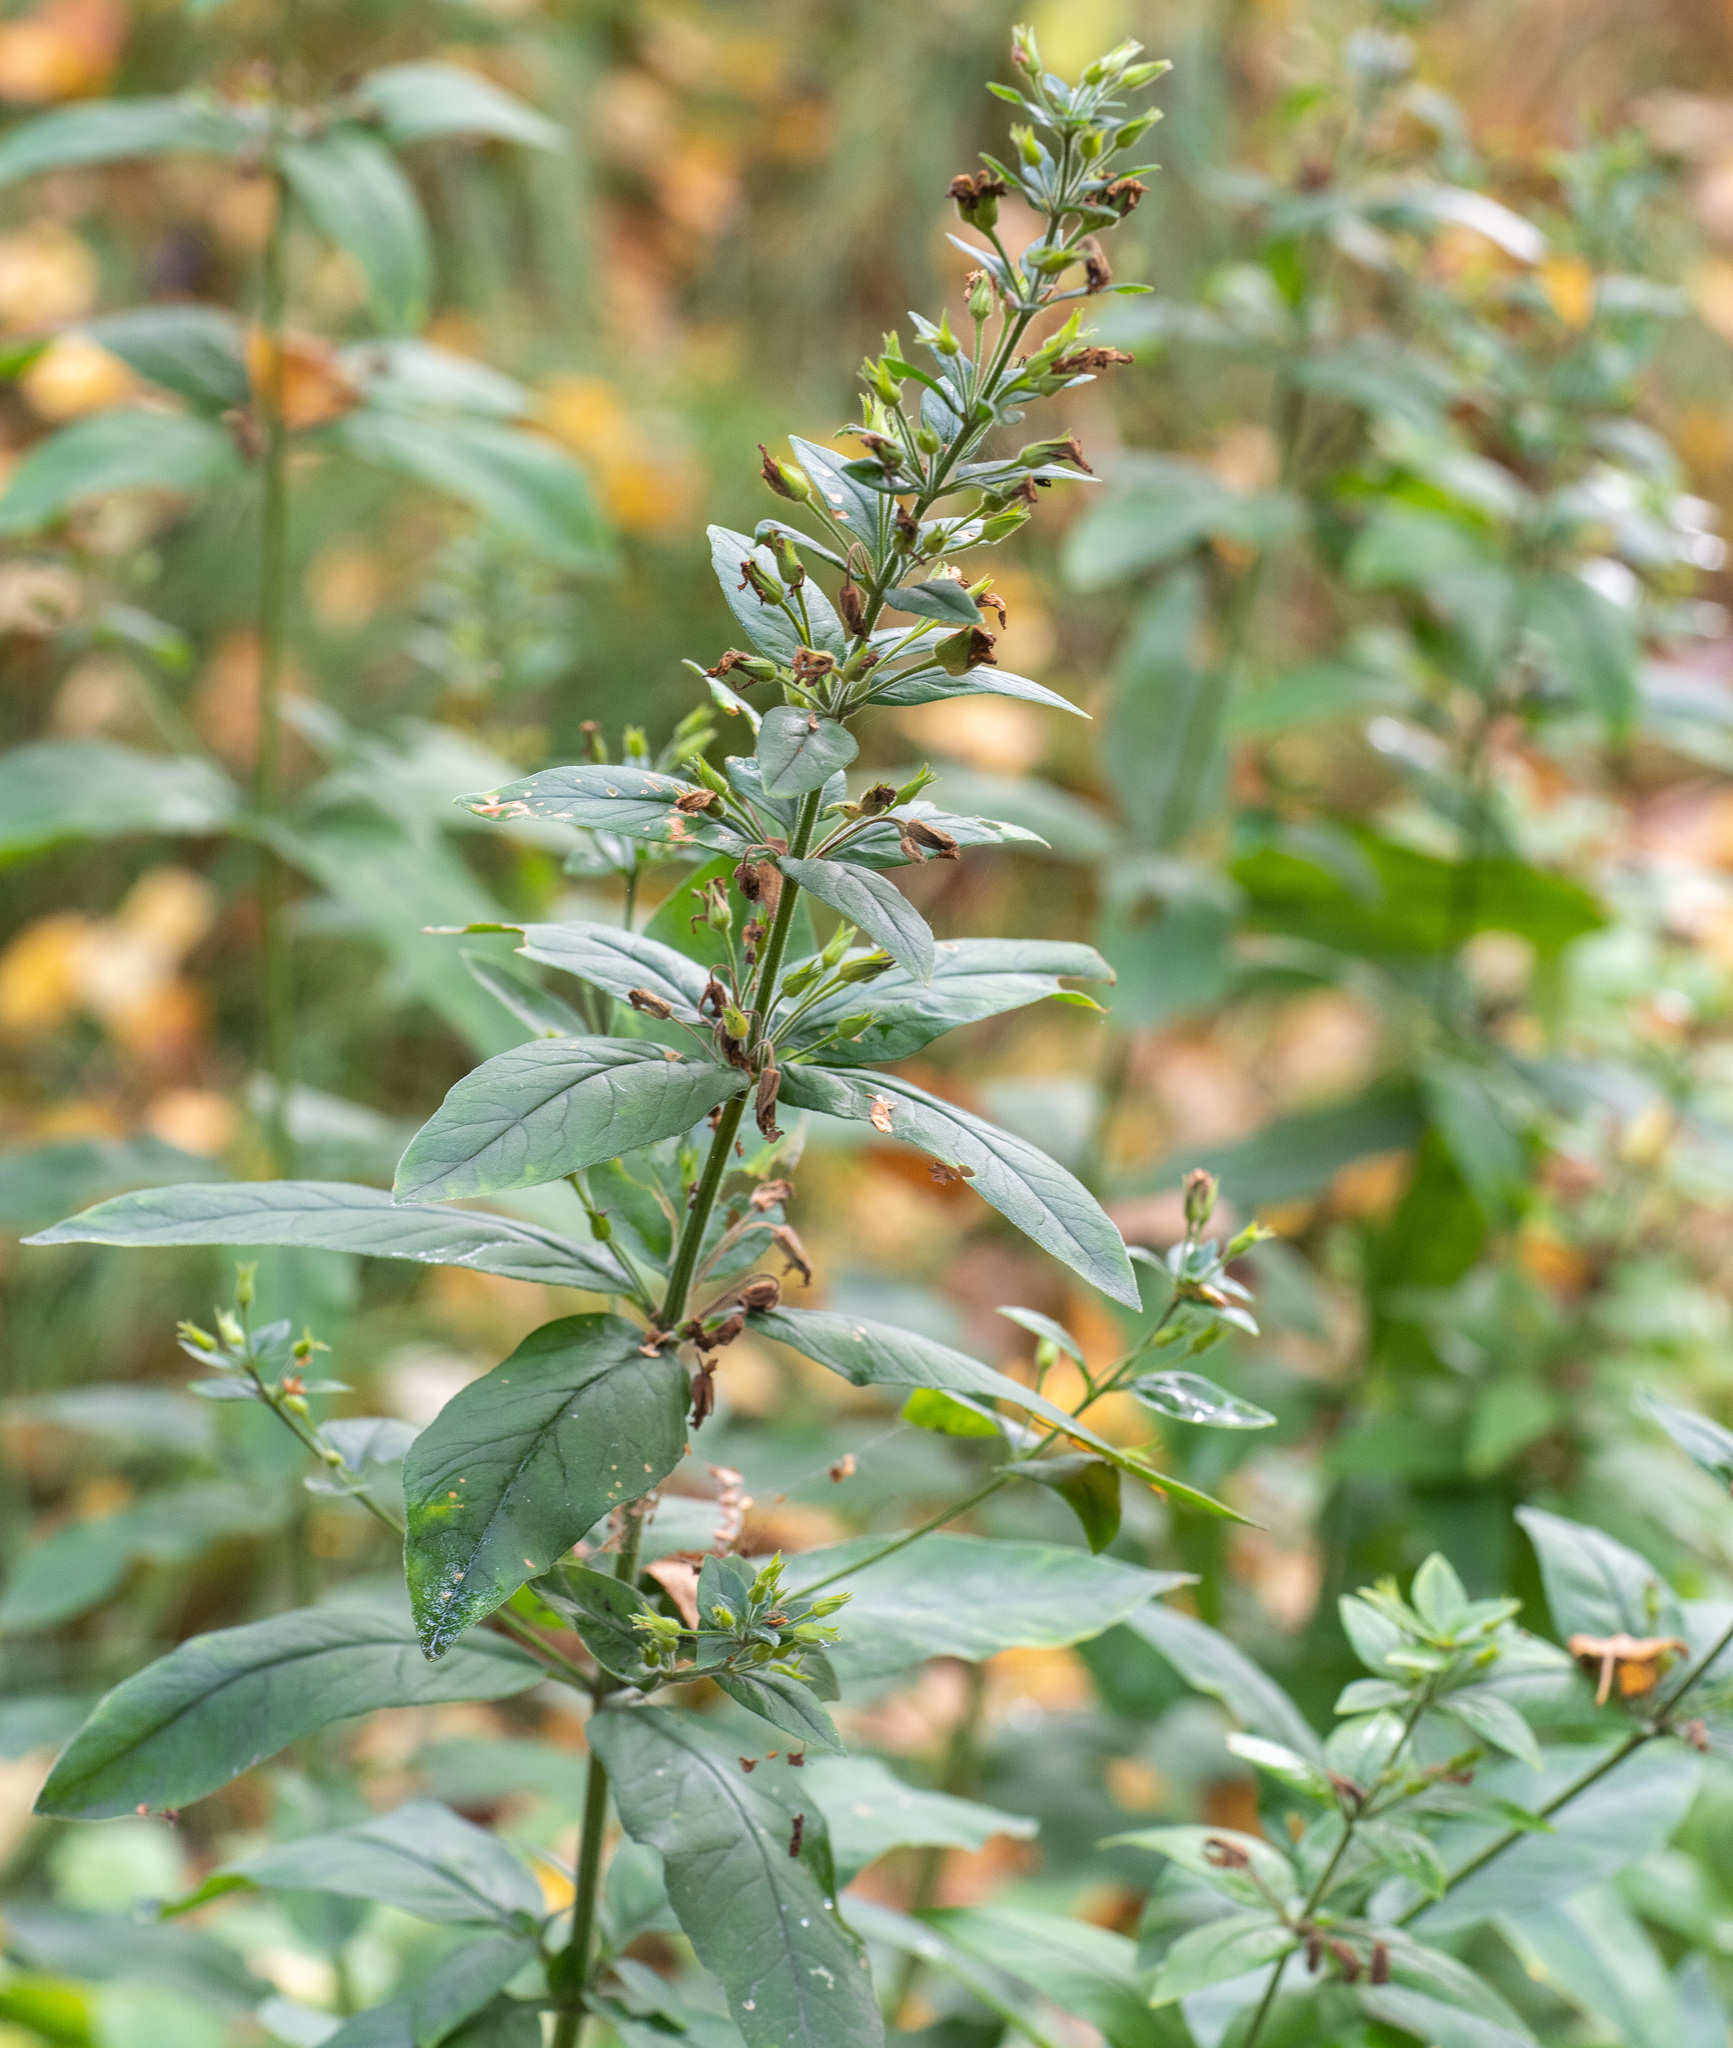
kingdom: Plantae
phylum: Tracheophyta
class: Magnoliopsida
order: Ericales
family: Primulaceae
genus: Lysimachia
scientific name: Lysimachia vulgaris
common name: Yellow loosestrife
